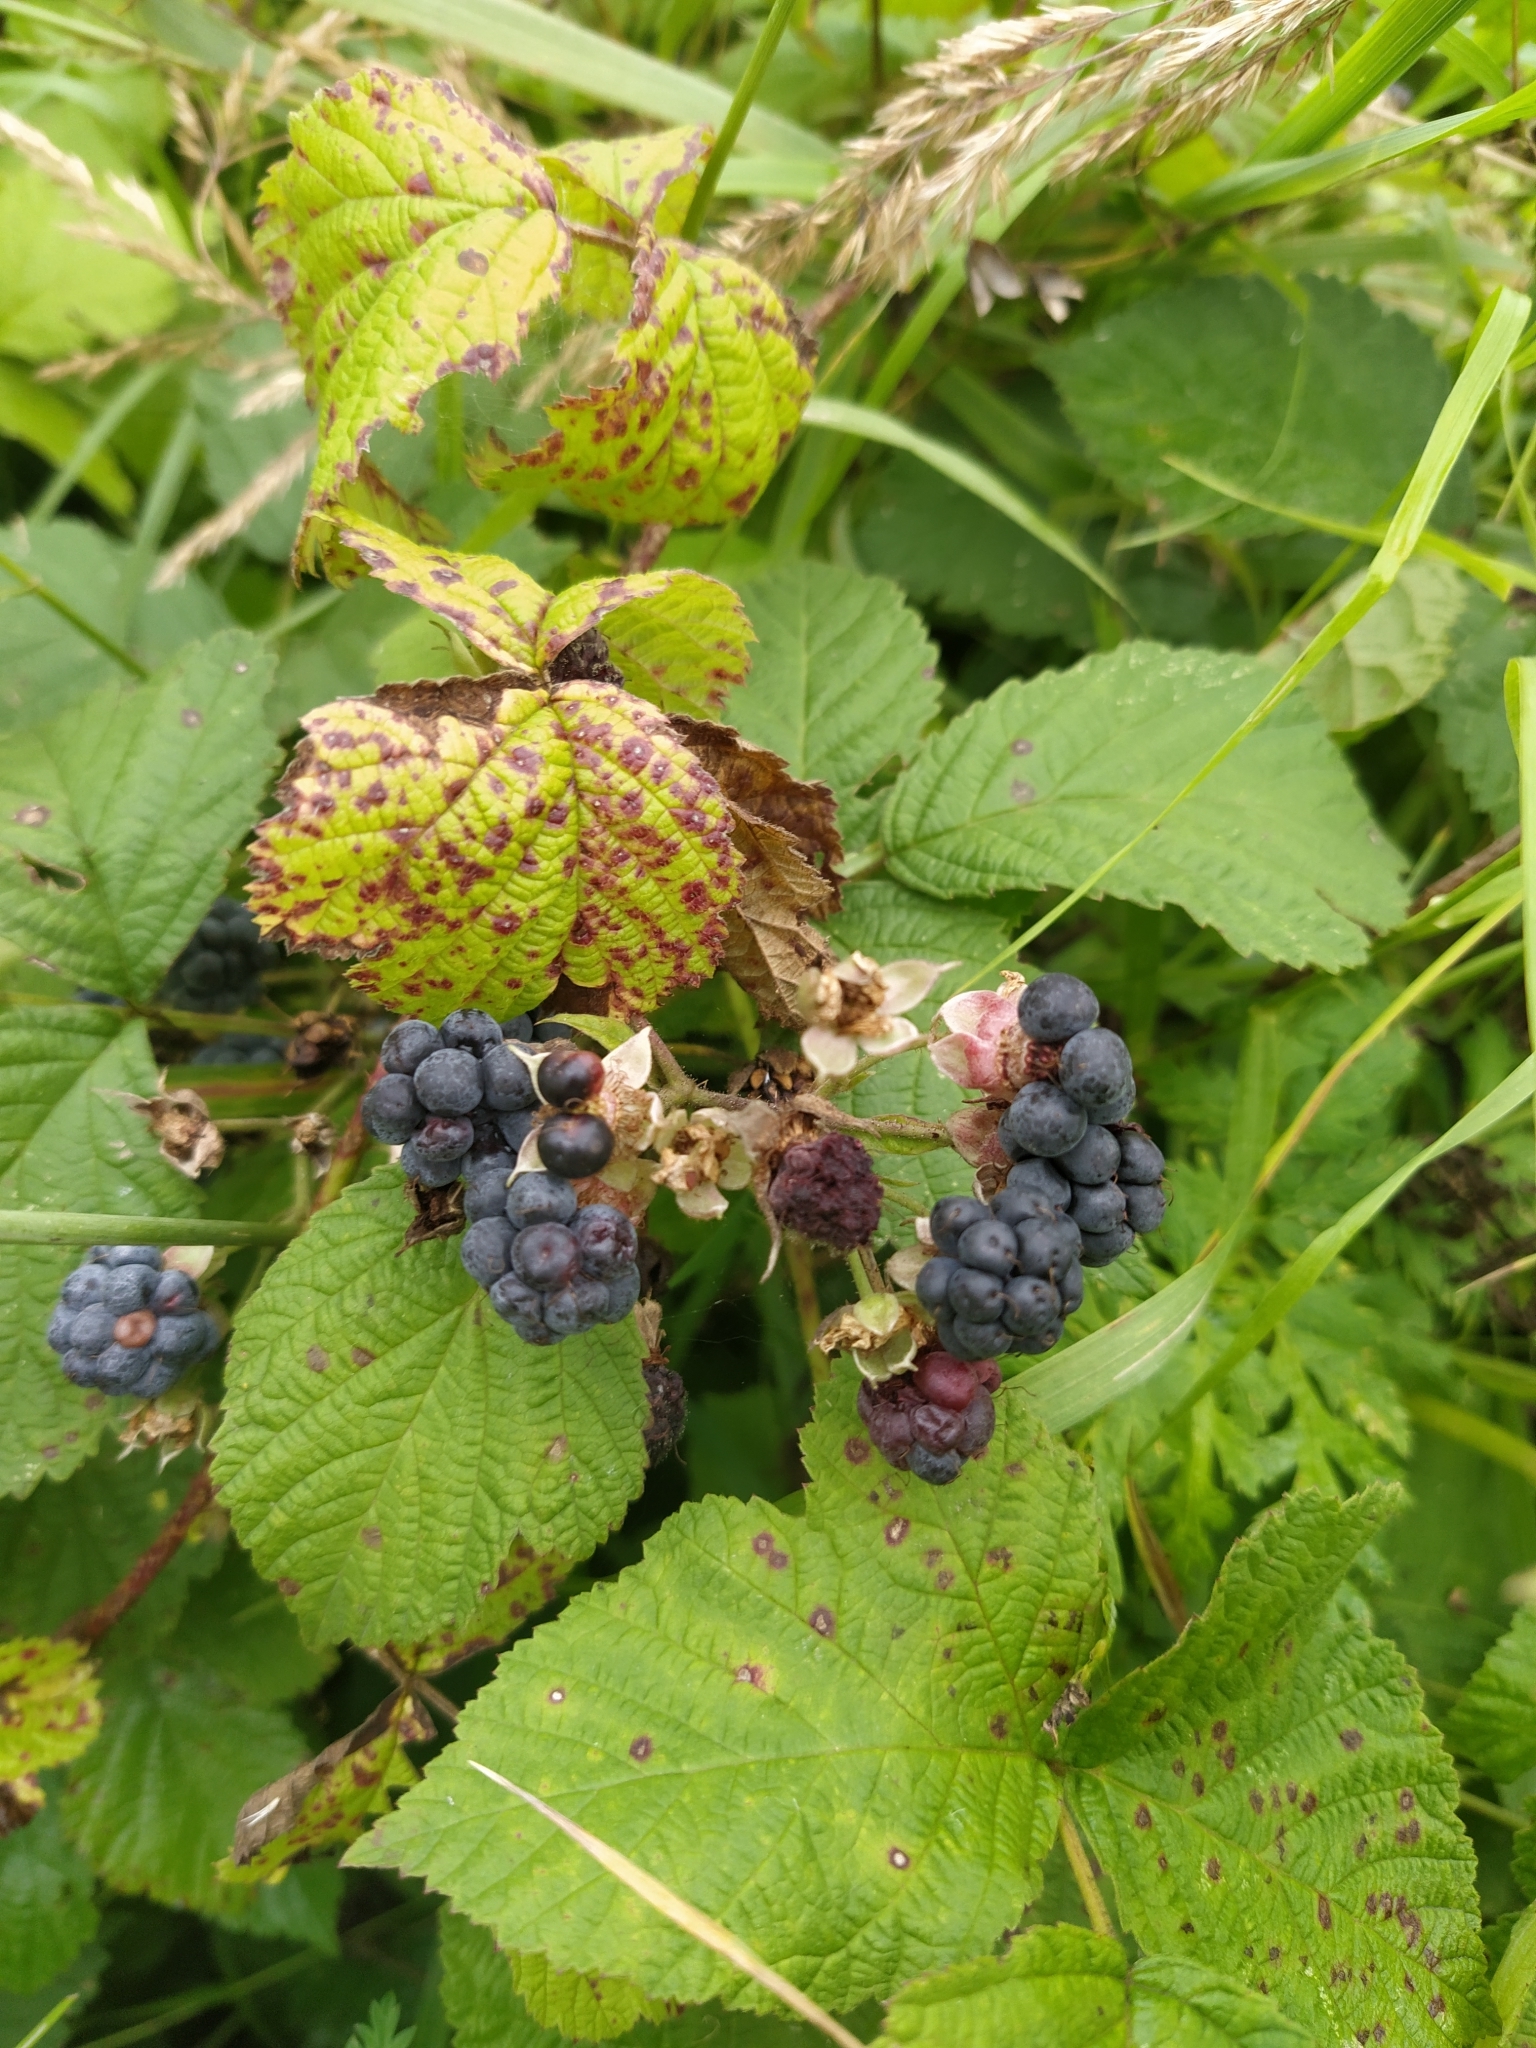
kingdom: Plantae
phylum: Tracheophyta
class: Magnoliopsida
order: Rosales
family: Rosaceae
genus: Rubus
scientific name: Rubus caesius
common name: Dewberry
